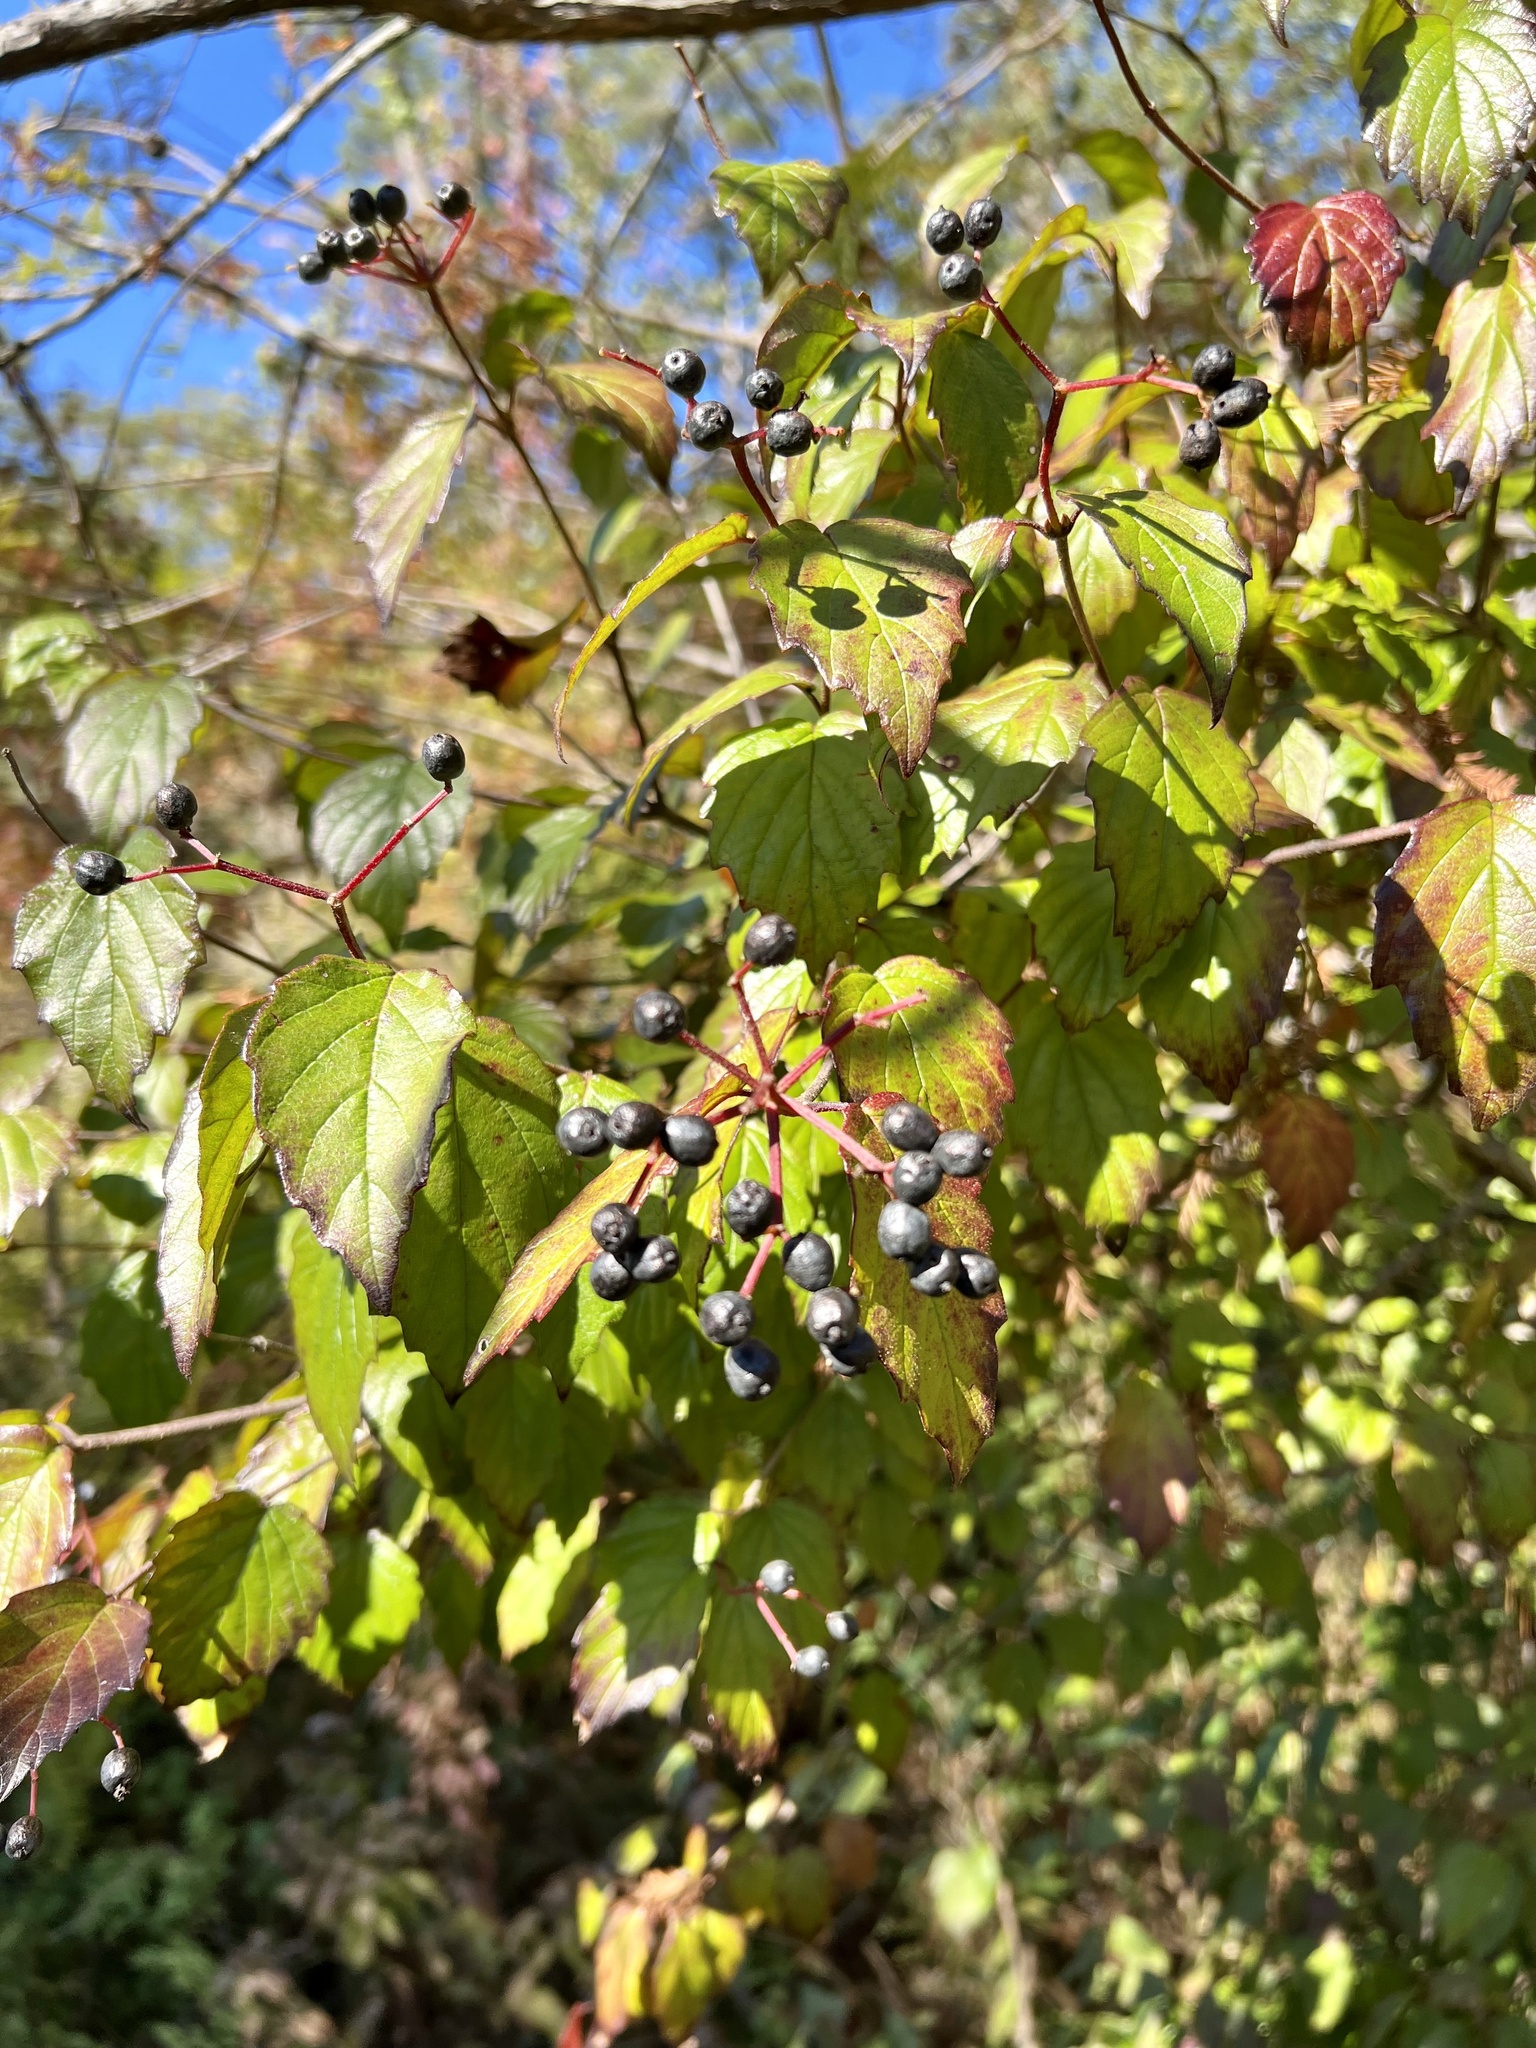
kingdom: Plantae
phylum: Tracheophyta
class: Magnoliopsida
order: Dipsacales
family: Viburnaceae
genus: Viburnum
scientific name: Viburnum scabrellum
